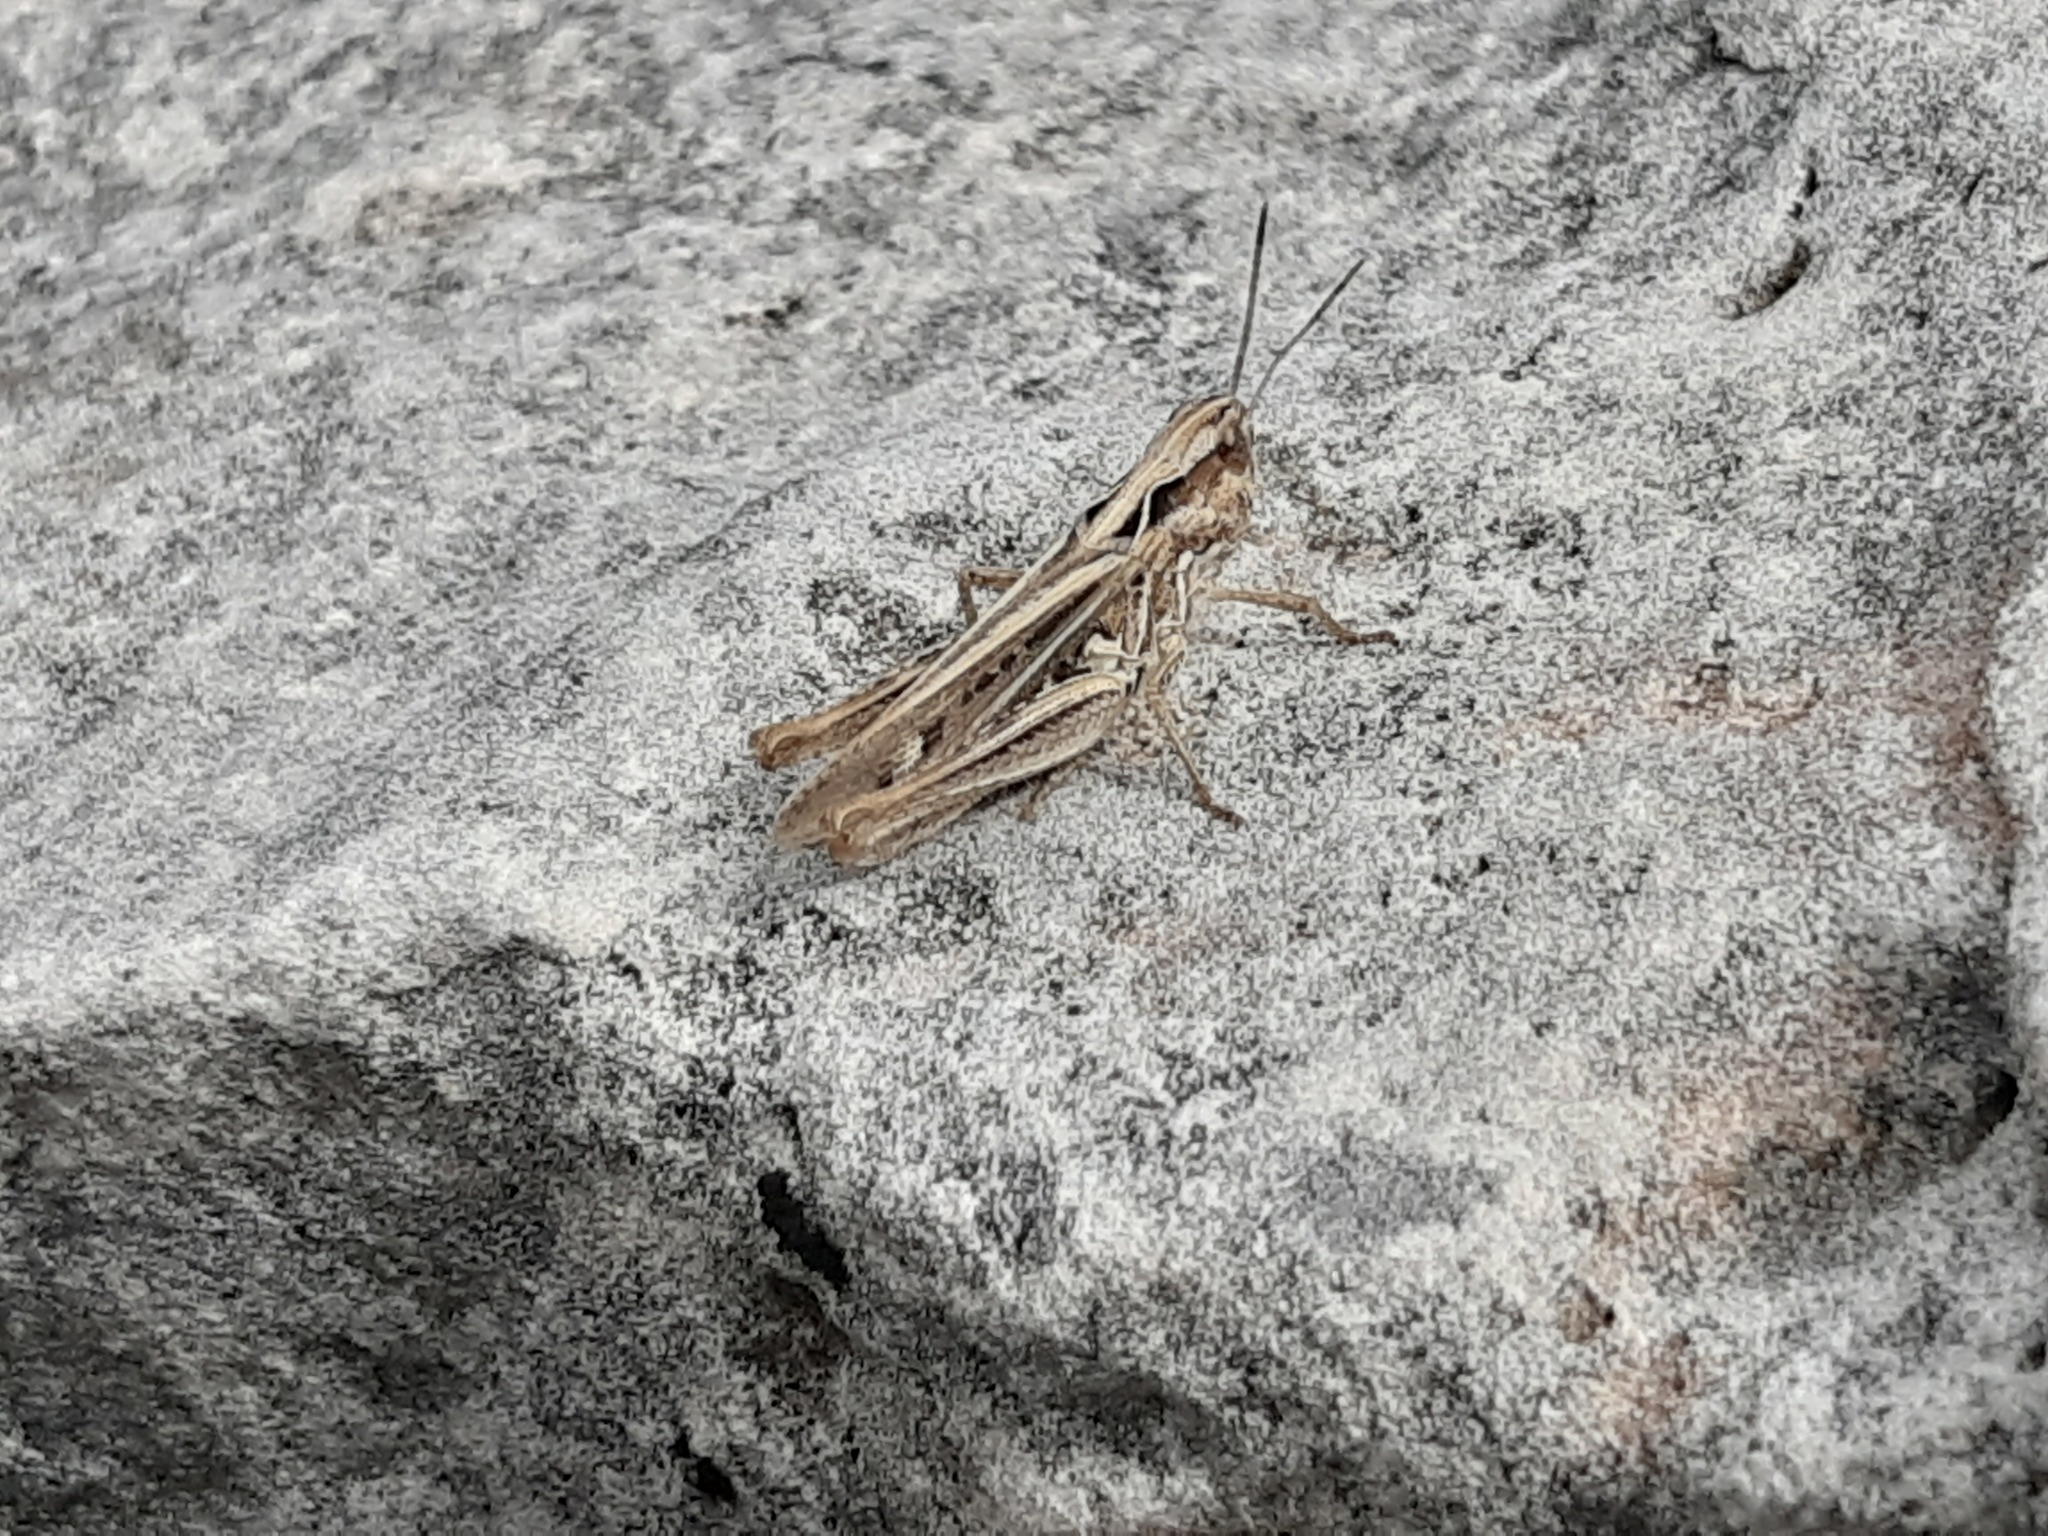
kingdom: Animalia
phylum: Arthropoda
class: Insecta
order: Orthoptera
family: Acrididae
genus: Omocestus
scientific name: Omocestus haemorrhoidalis
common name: Orange-tipped grasshopper
